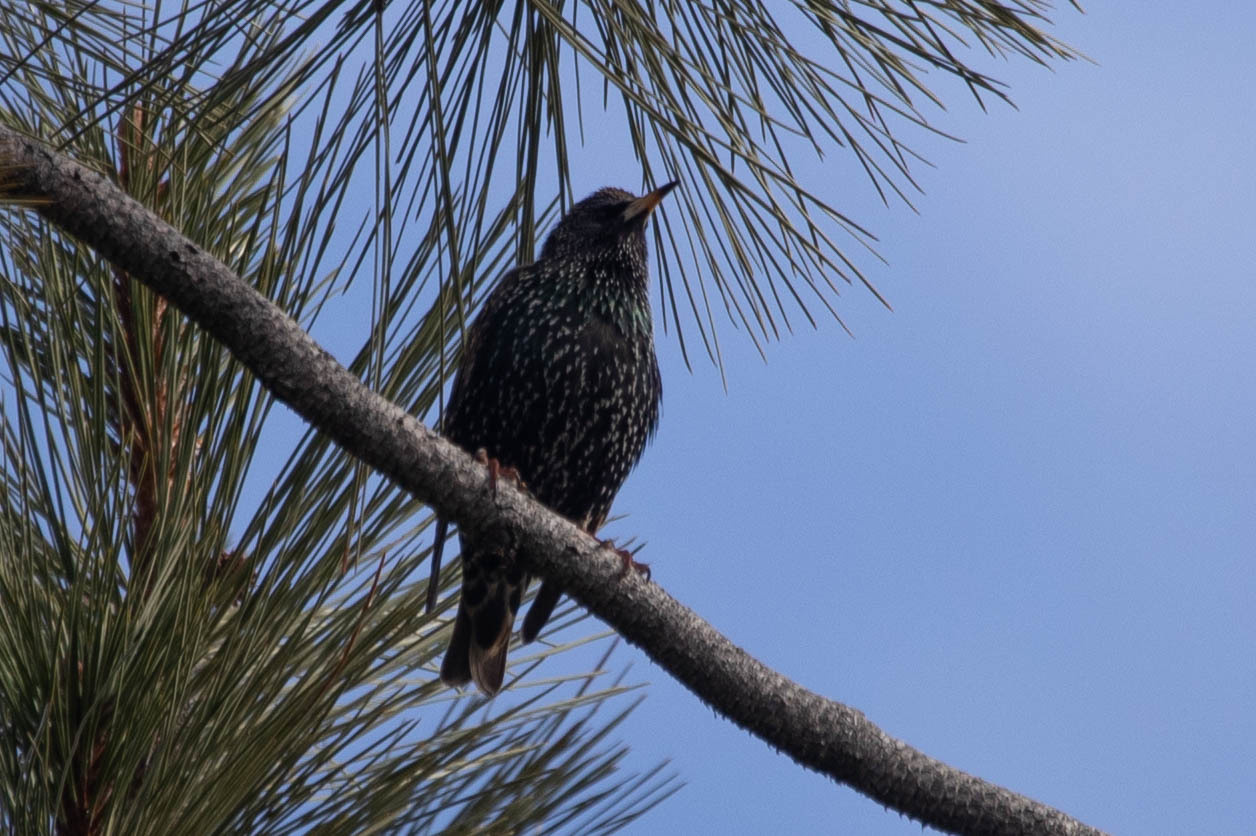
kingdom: Animalia
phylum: Chordata
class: Aves
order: Passeriformes
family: Sturnidae
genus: Sturnus
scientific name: Sturnus vulgaris
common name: Common starling
